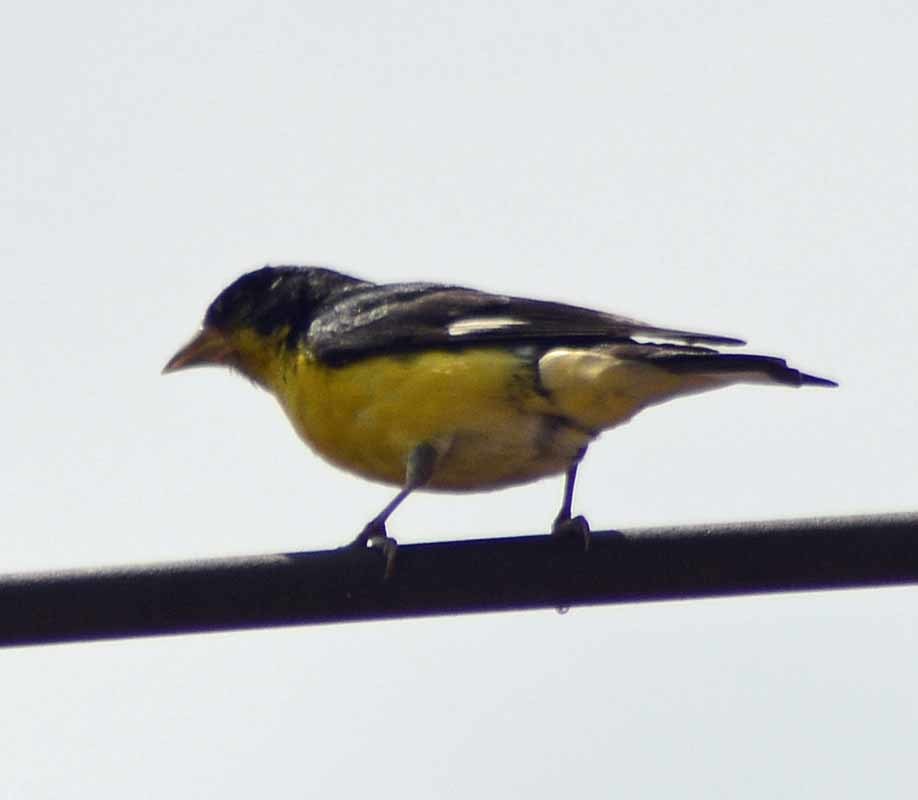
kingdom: Animalia
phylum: Chordata
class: Aves
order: Passeriformes
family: Fringillidae
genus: Spinus
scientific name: Spinus psaltria
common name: Lesser goldfinch
